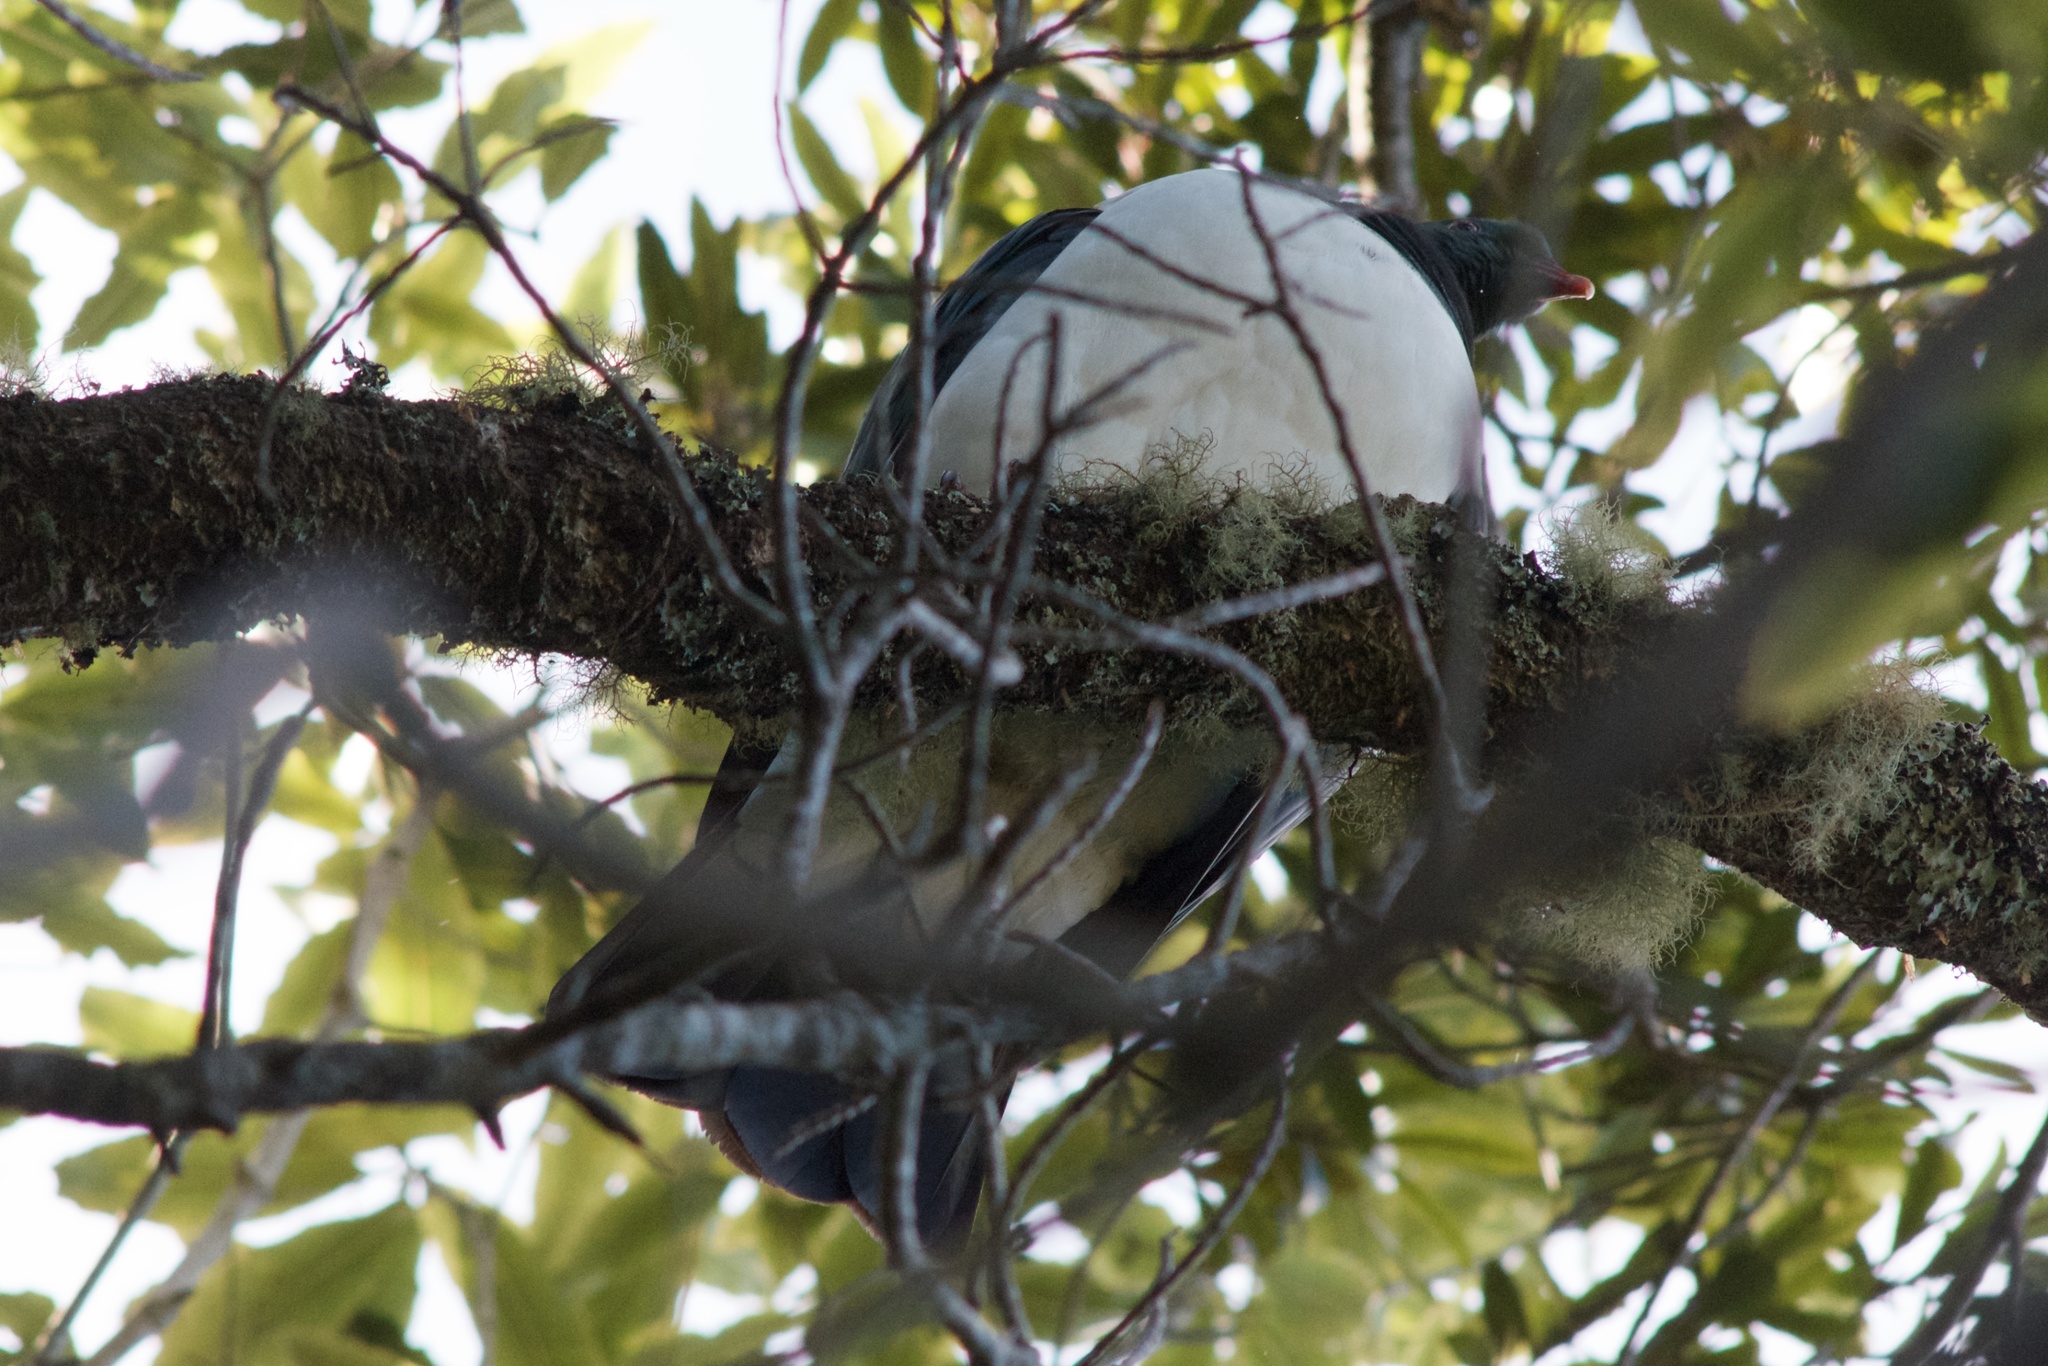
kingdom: Animalia
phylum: Chordata
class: Aves
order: Columbiformes
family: Columbidae
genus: Hemiphaga
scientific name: Hemiphaga novaeseelandiae
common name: New zealand pigeon
